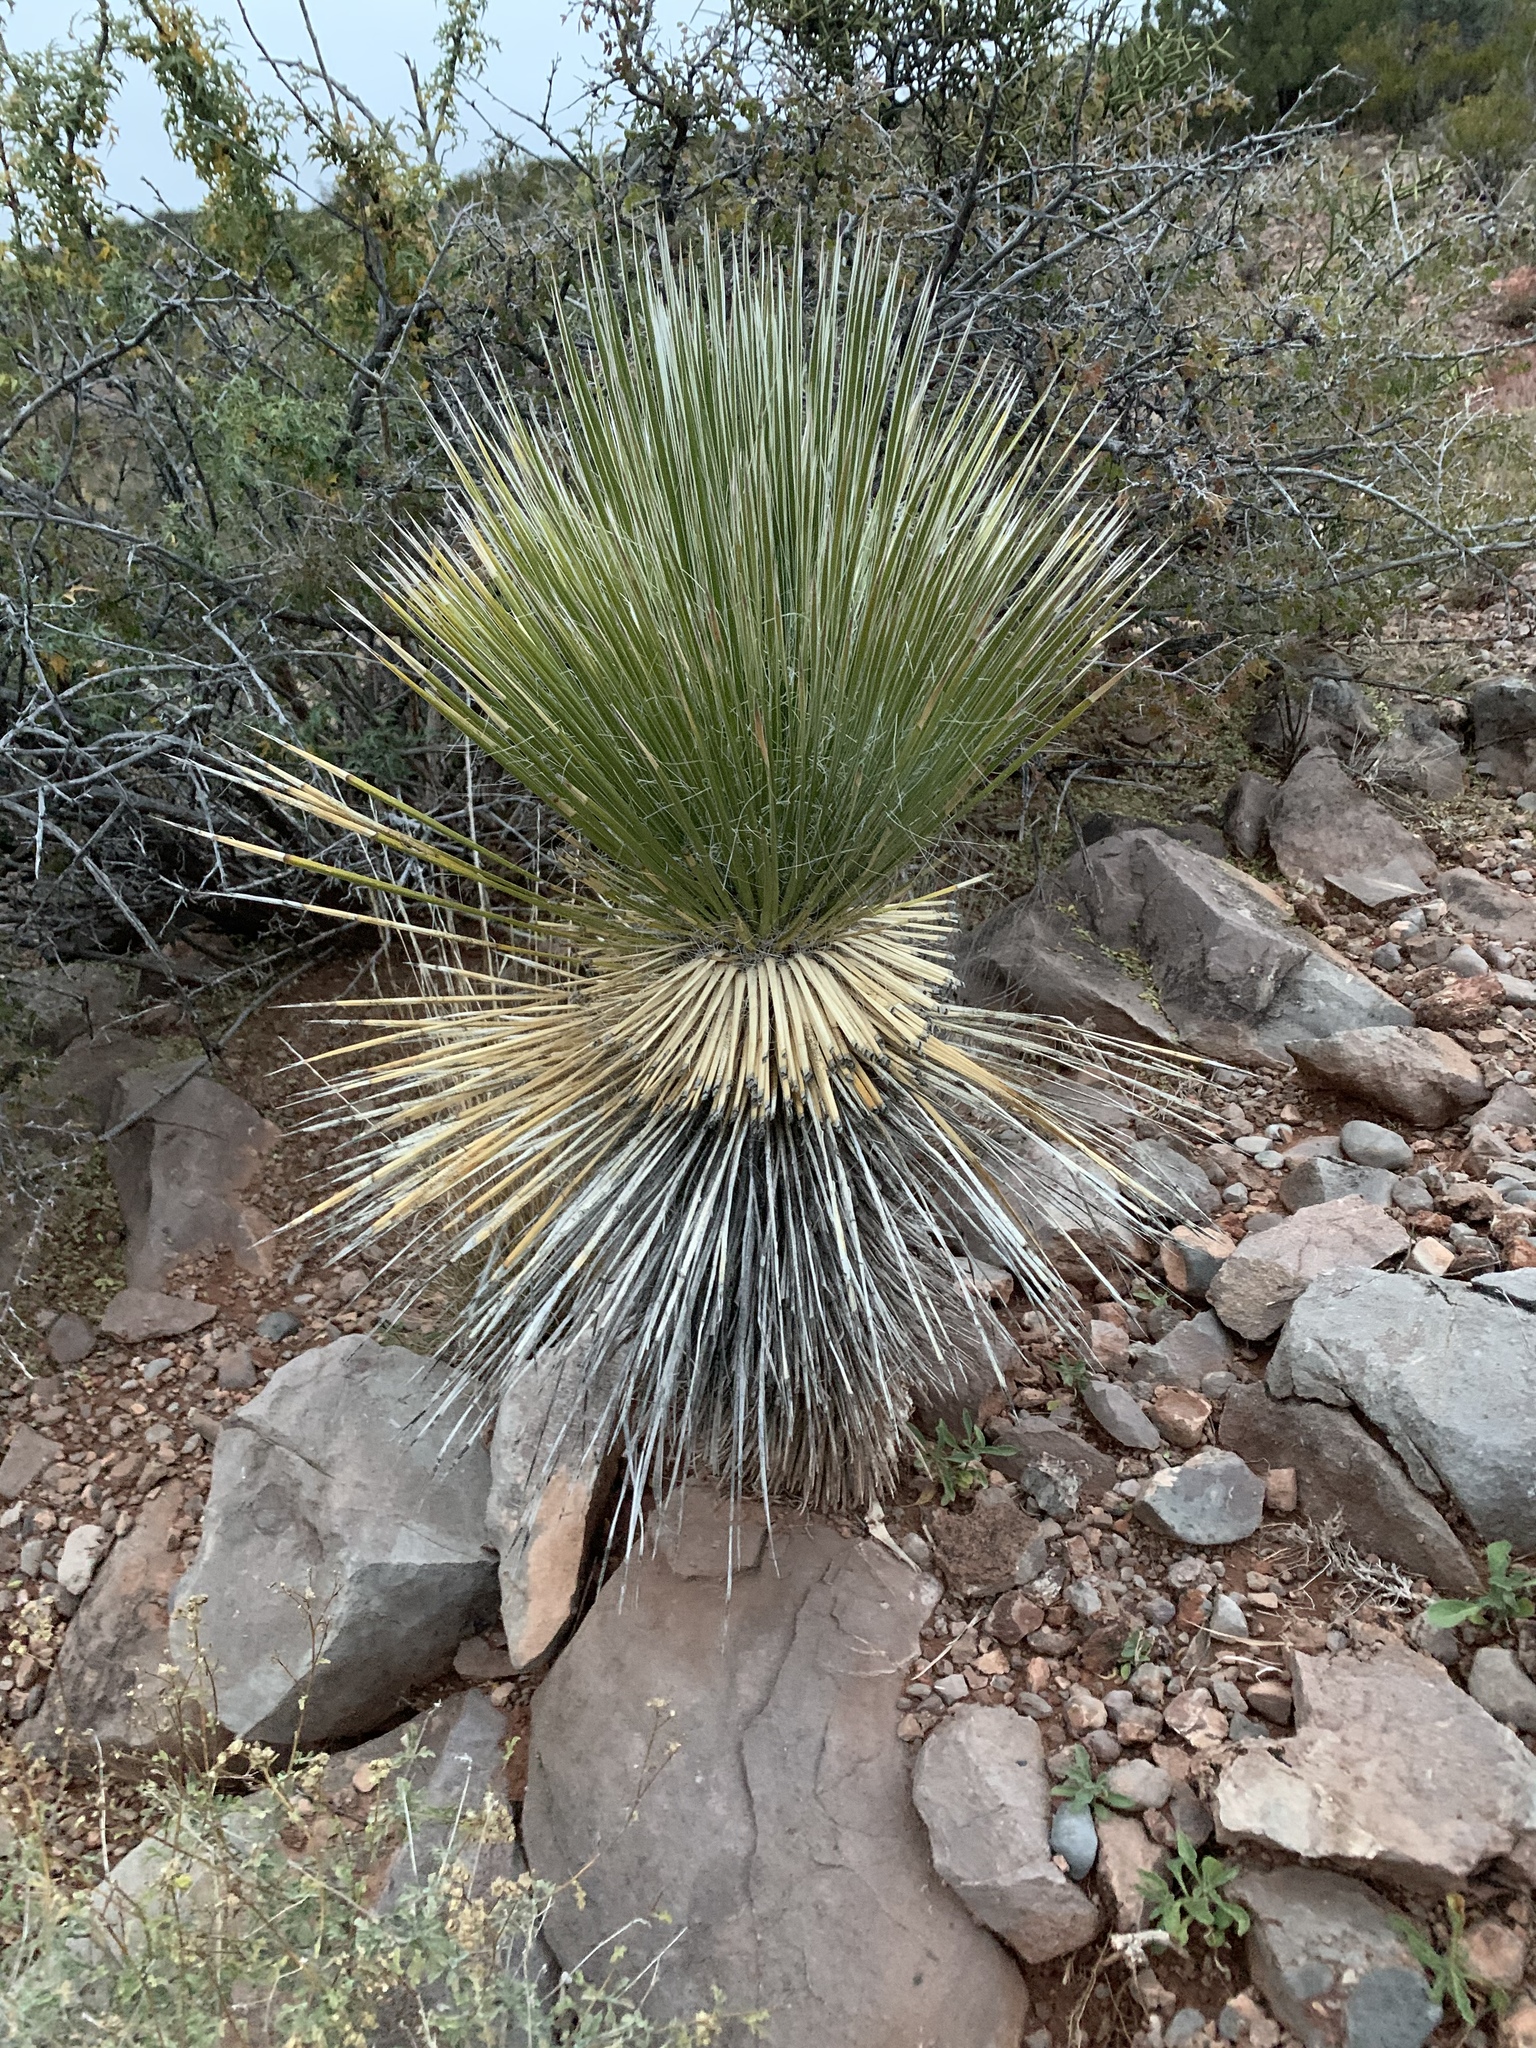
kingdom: Plantae
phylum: Tracheophyta
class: Liliopsida
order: Asparagales
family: Asparagaceae
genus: Yucca
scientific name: Yucca elata
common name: Palmella
